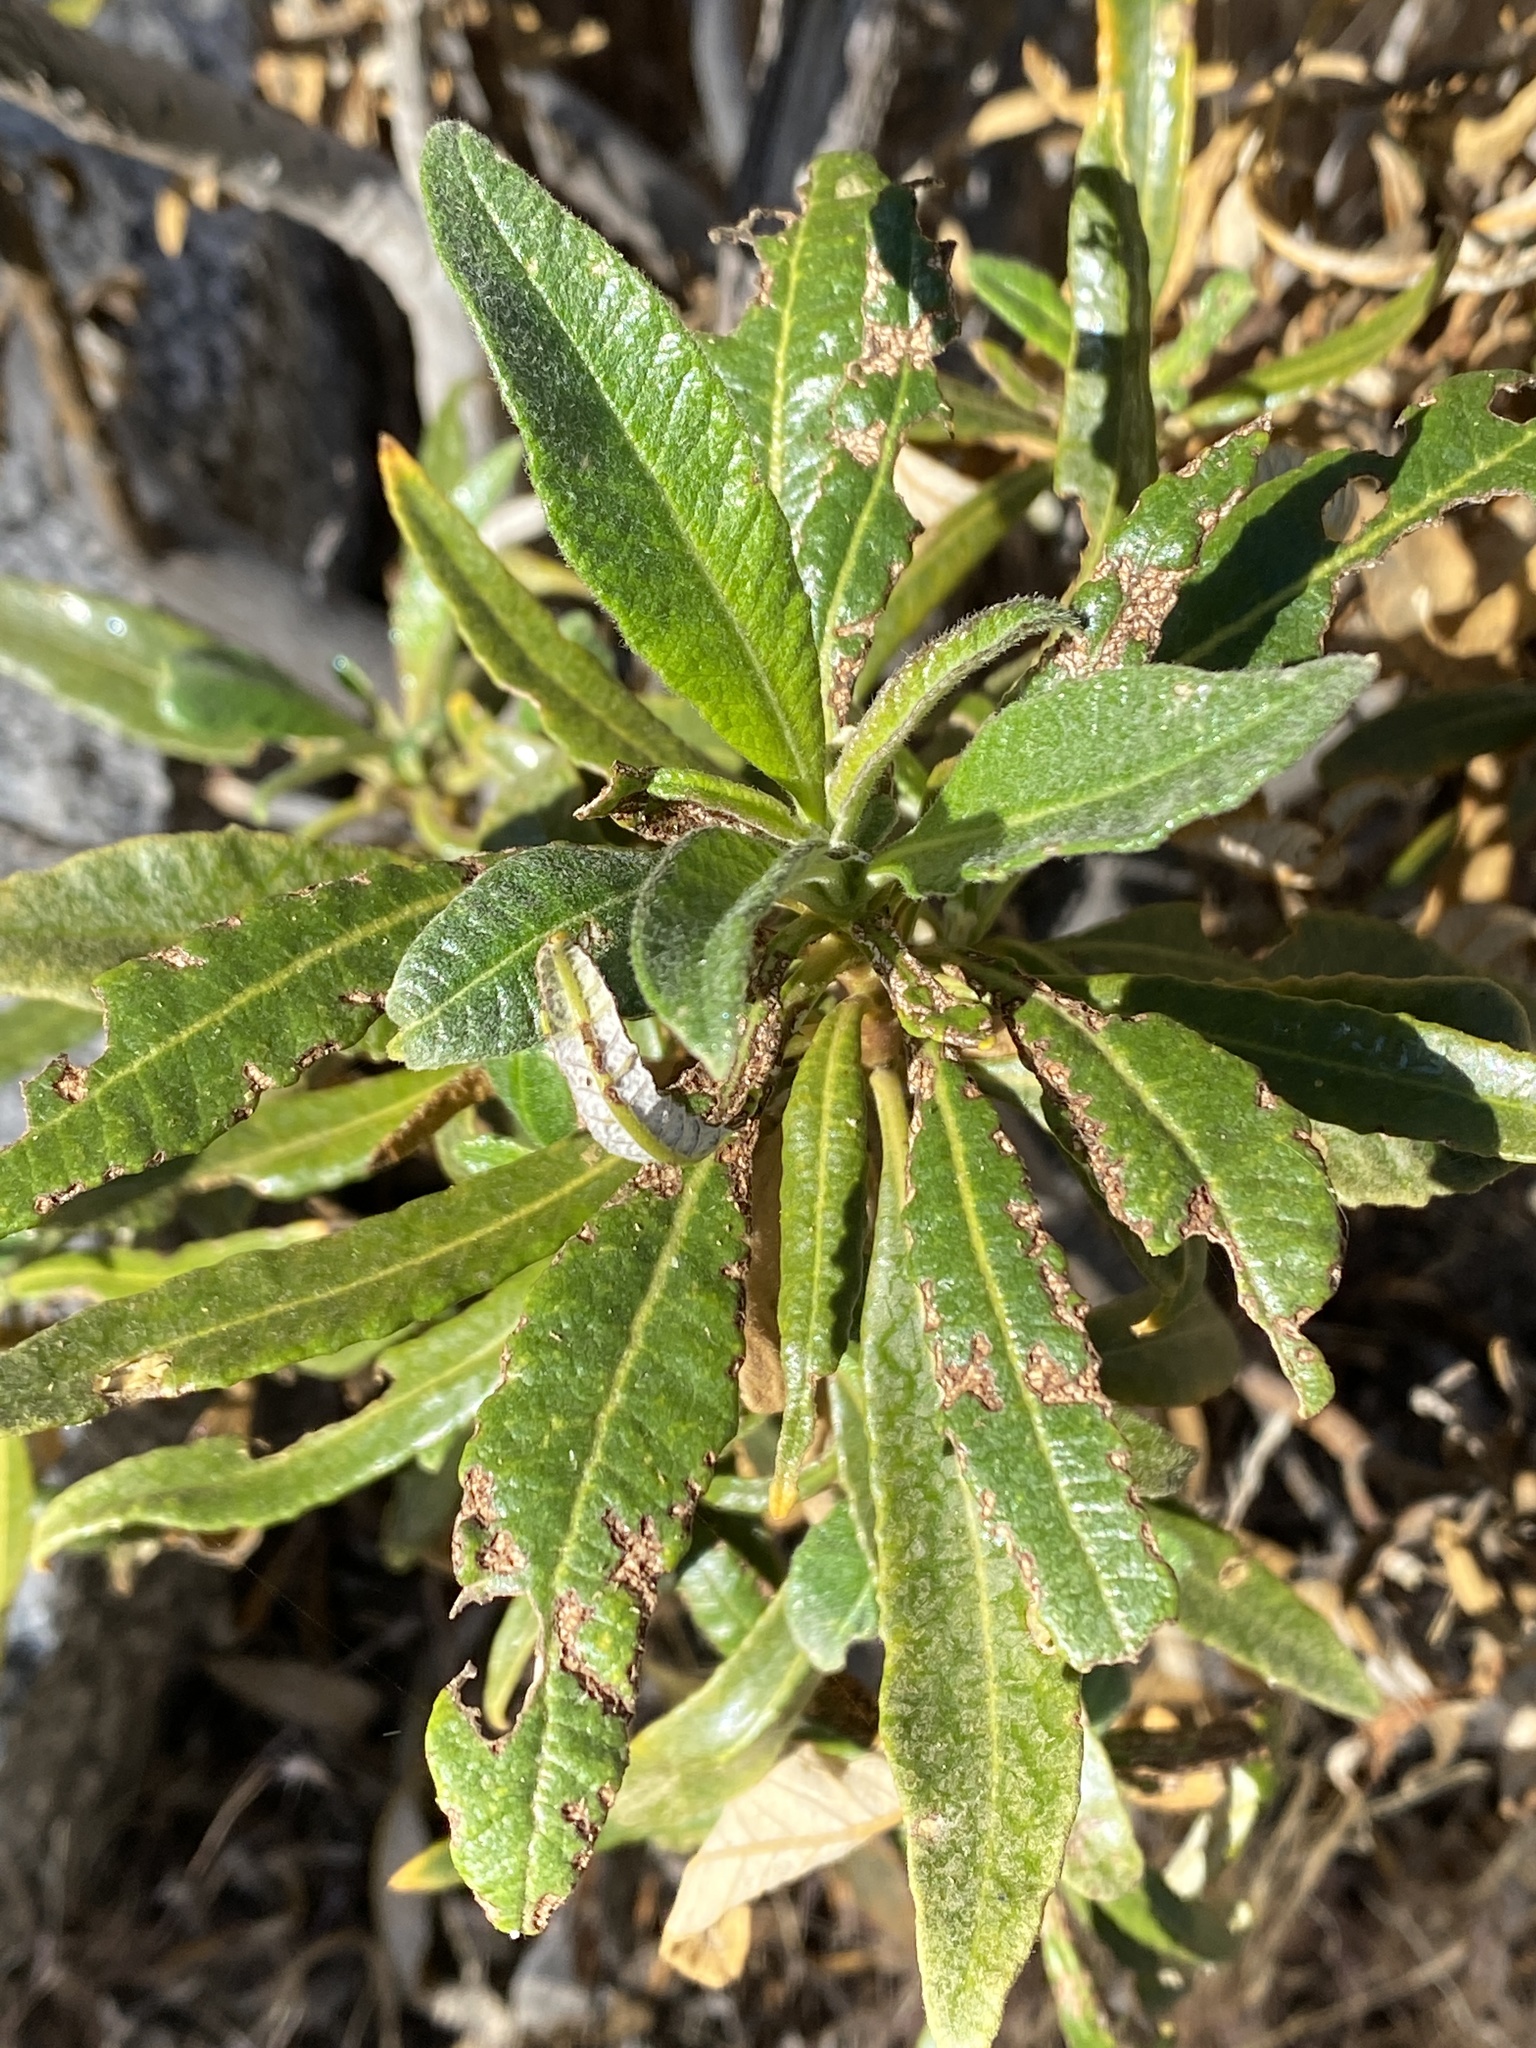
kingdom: Plantae
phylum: Tracheophyta
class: Magnoliopsida
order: Boraginales
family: Namaceae
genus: Eriodictyon
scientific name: Eriodictyon trichocalyx
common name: Hairy yerba-santa
